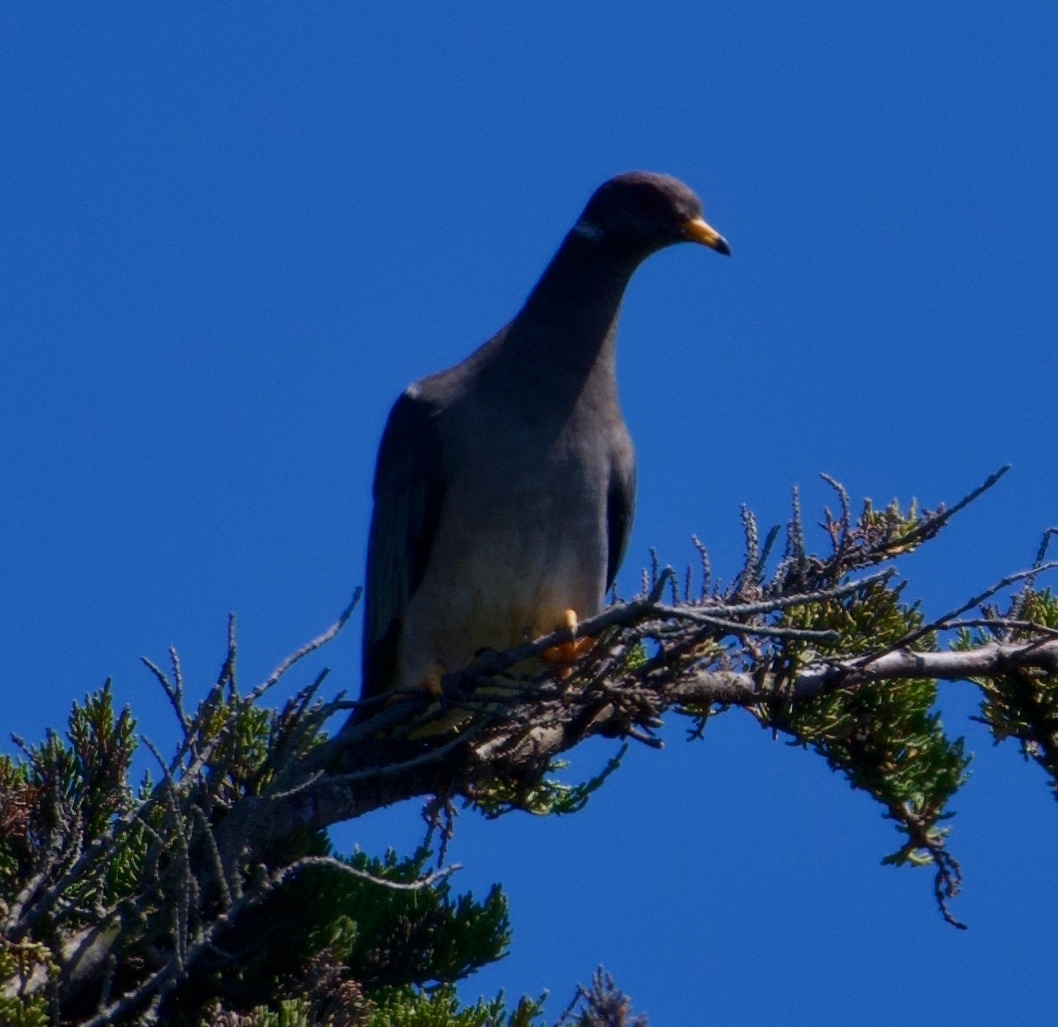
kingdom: Animalia
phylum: Chordata
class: Aves
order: Columbiformes
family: Columbidae
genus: Patagioenas
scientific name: Patagioenas fasciata
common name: Band-tailed pigeon
